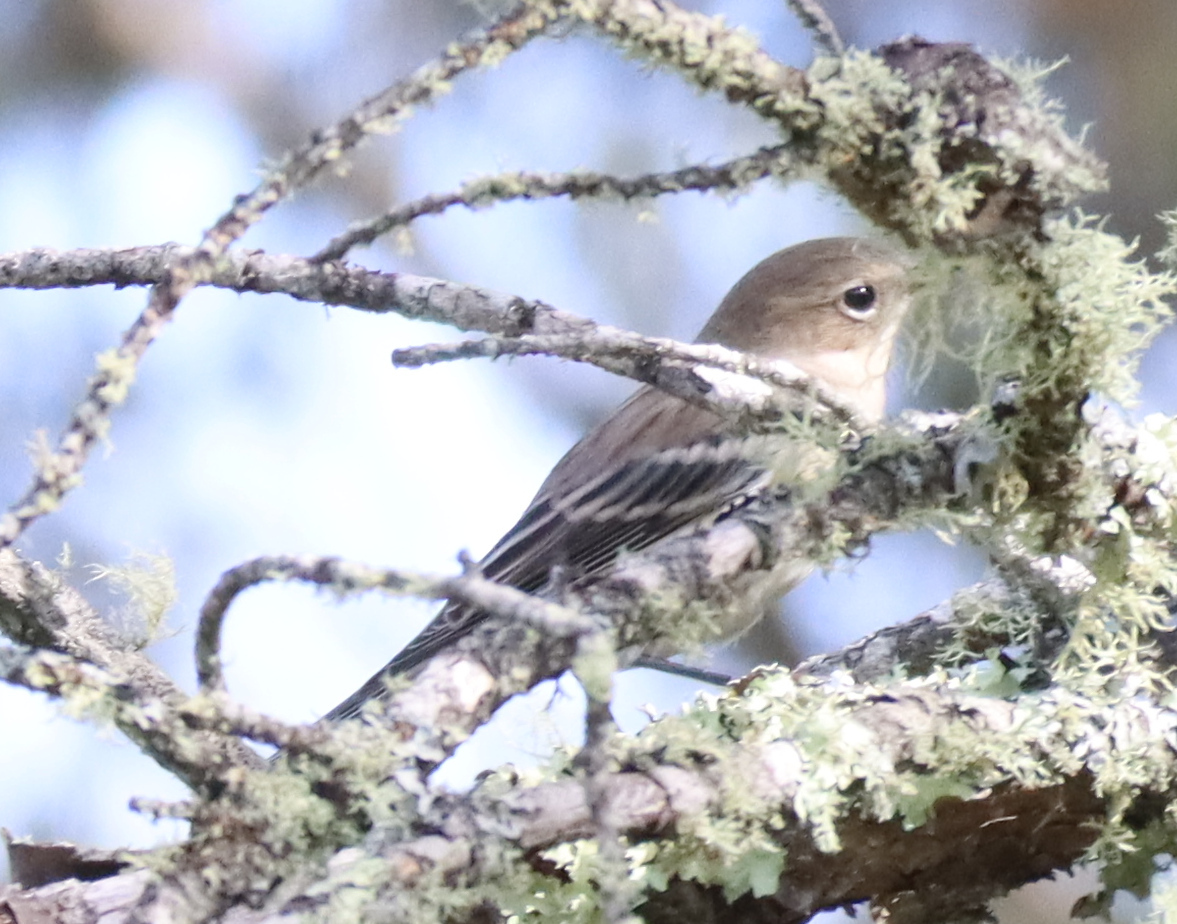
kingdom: Animalia
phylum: Chordata
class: Aves
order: Passeriformes
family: Parulidae
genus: Setophaga
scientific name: Setophaga coronata
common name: Myrtle warbler
